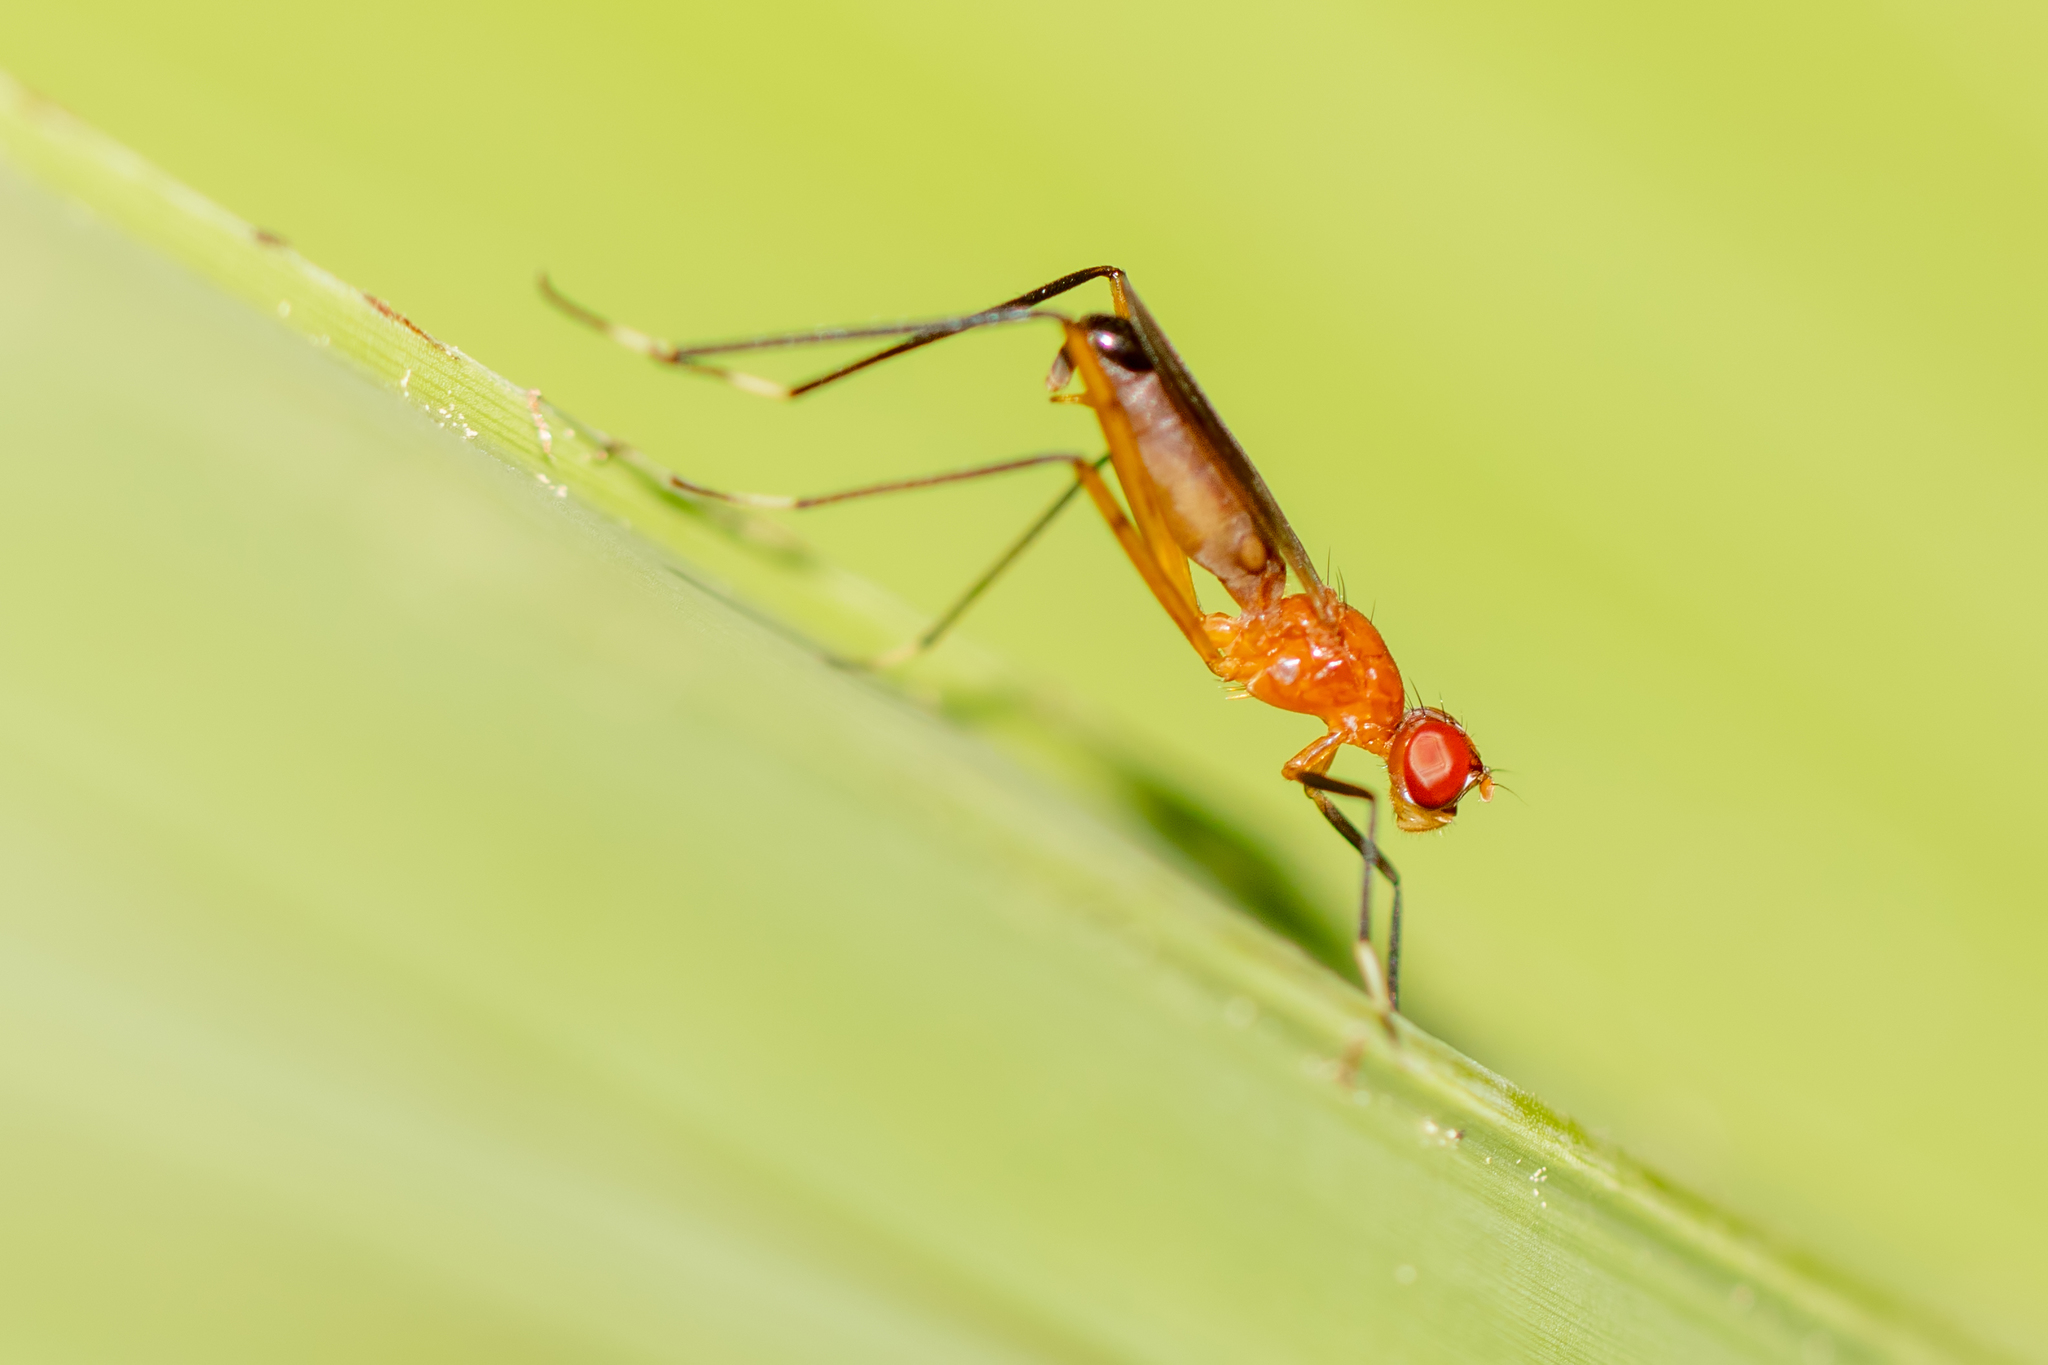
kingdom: Animalia
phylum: Arthropoda
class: Insecta
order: Diptera
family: Micropezidae
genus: Grallipeza
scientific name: Grallipeza nebulosa
